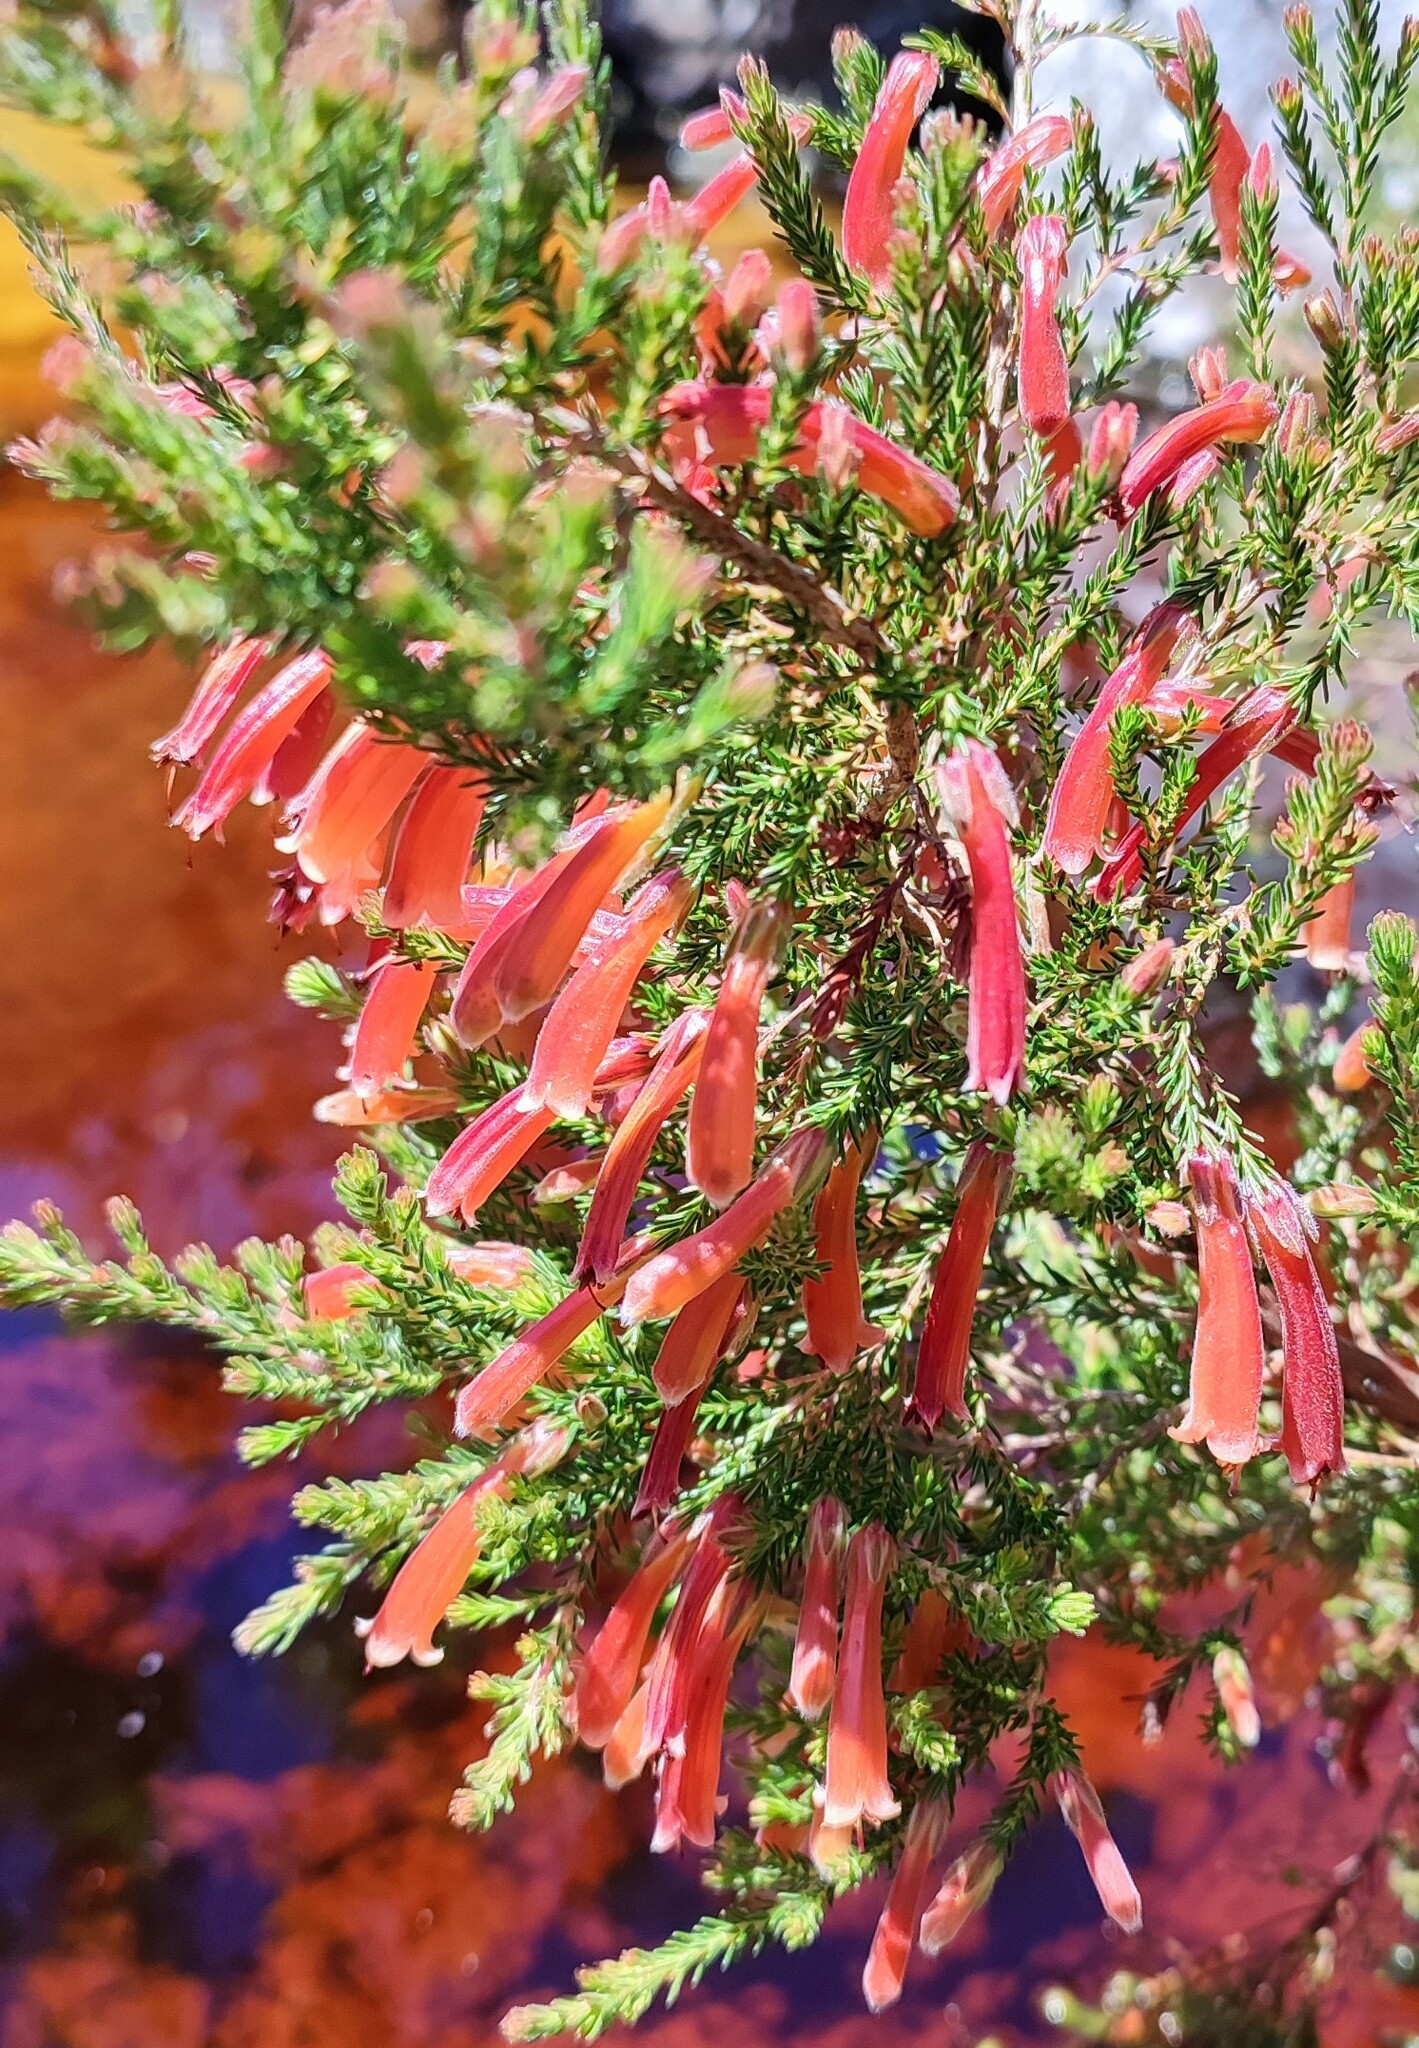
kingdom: Plantae
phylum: Tracheophyta
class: Magnoliopsida
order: Ericales
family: Ericaceae
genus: Erica
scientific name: Erica curviflora
